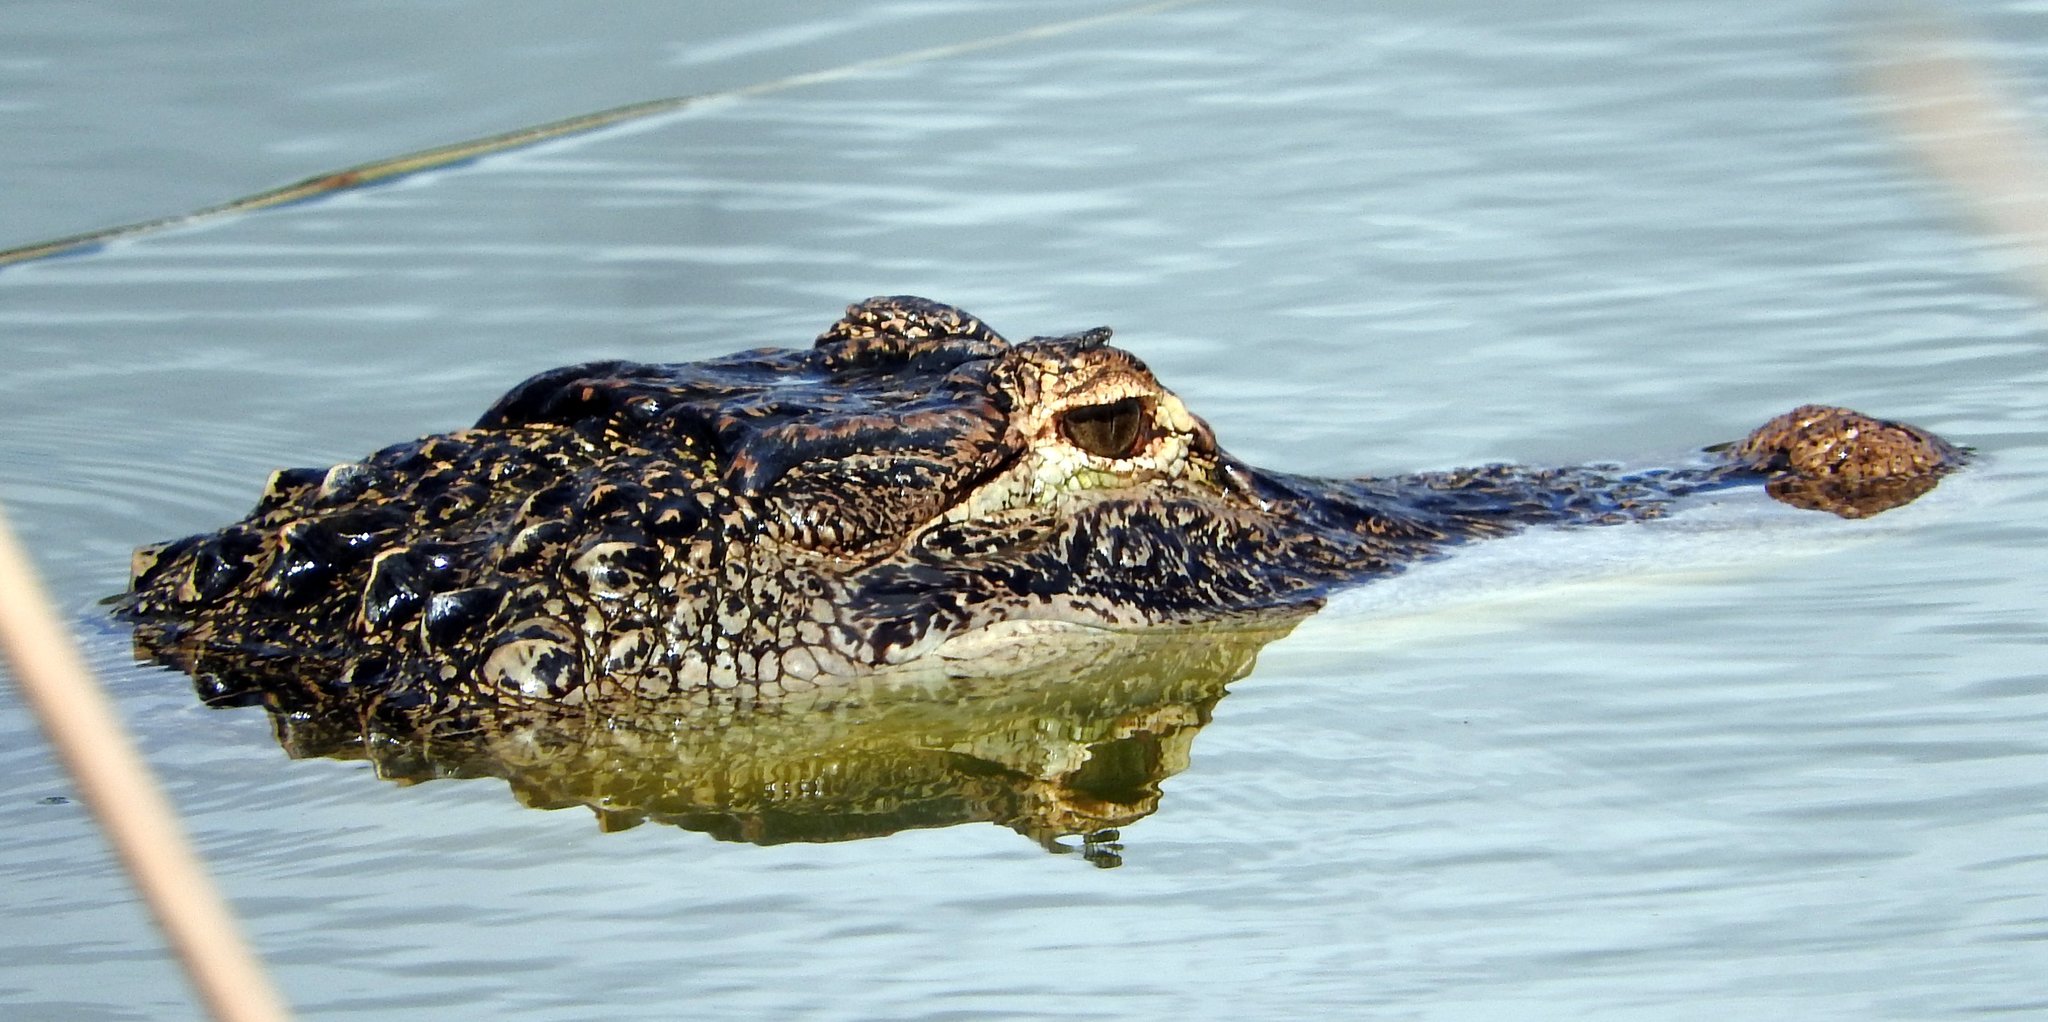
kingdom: Animalia
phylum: Chordata
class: Crocodylia
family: Alligatoridae
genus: Alligator
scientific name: Alligator mississippiensis
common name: American alligator
